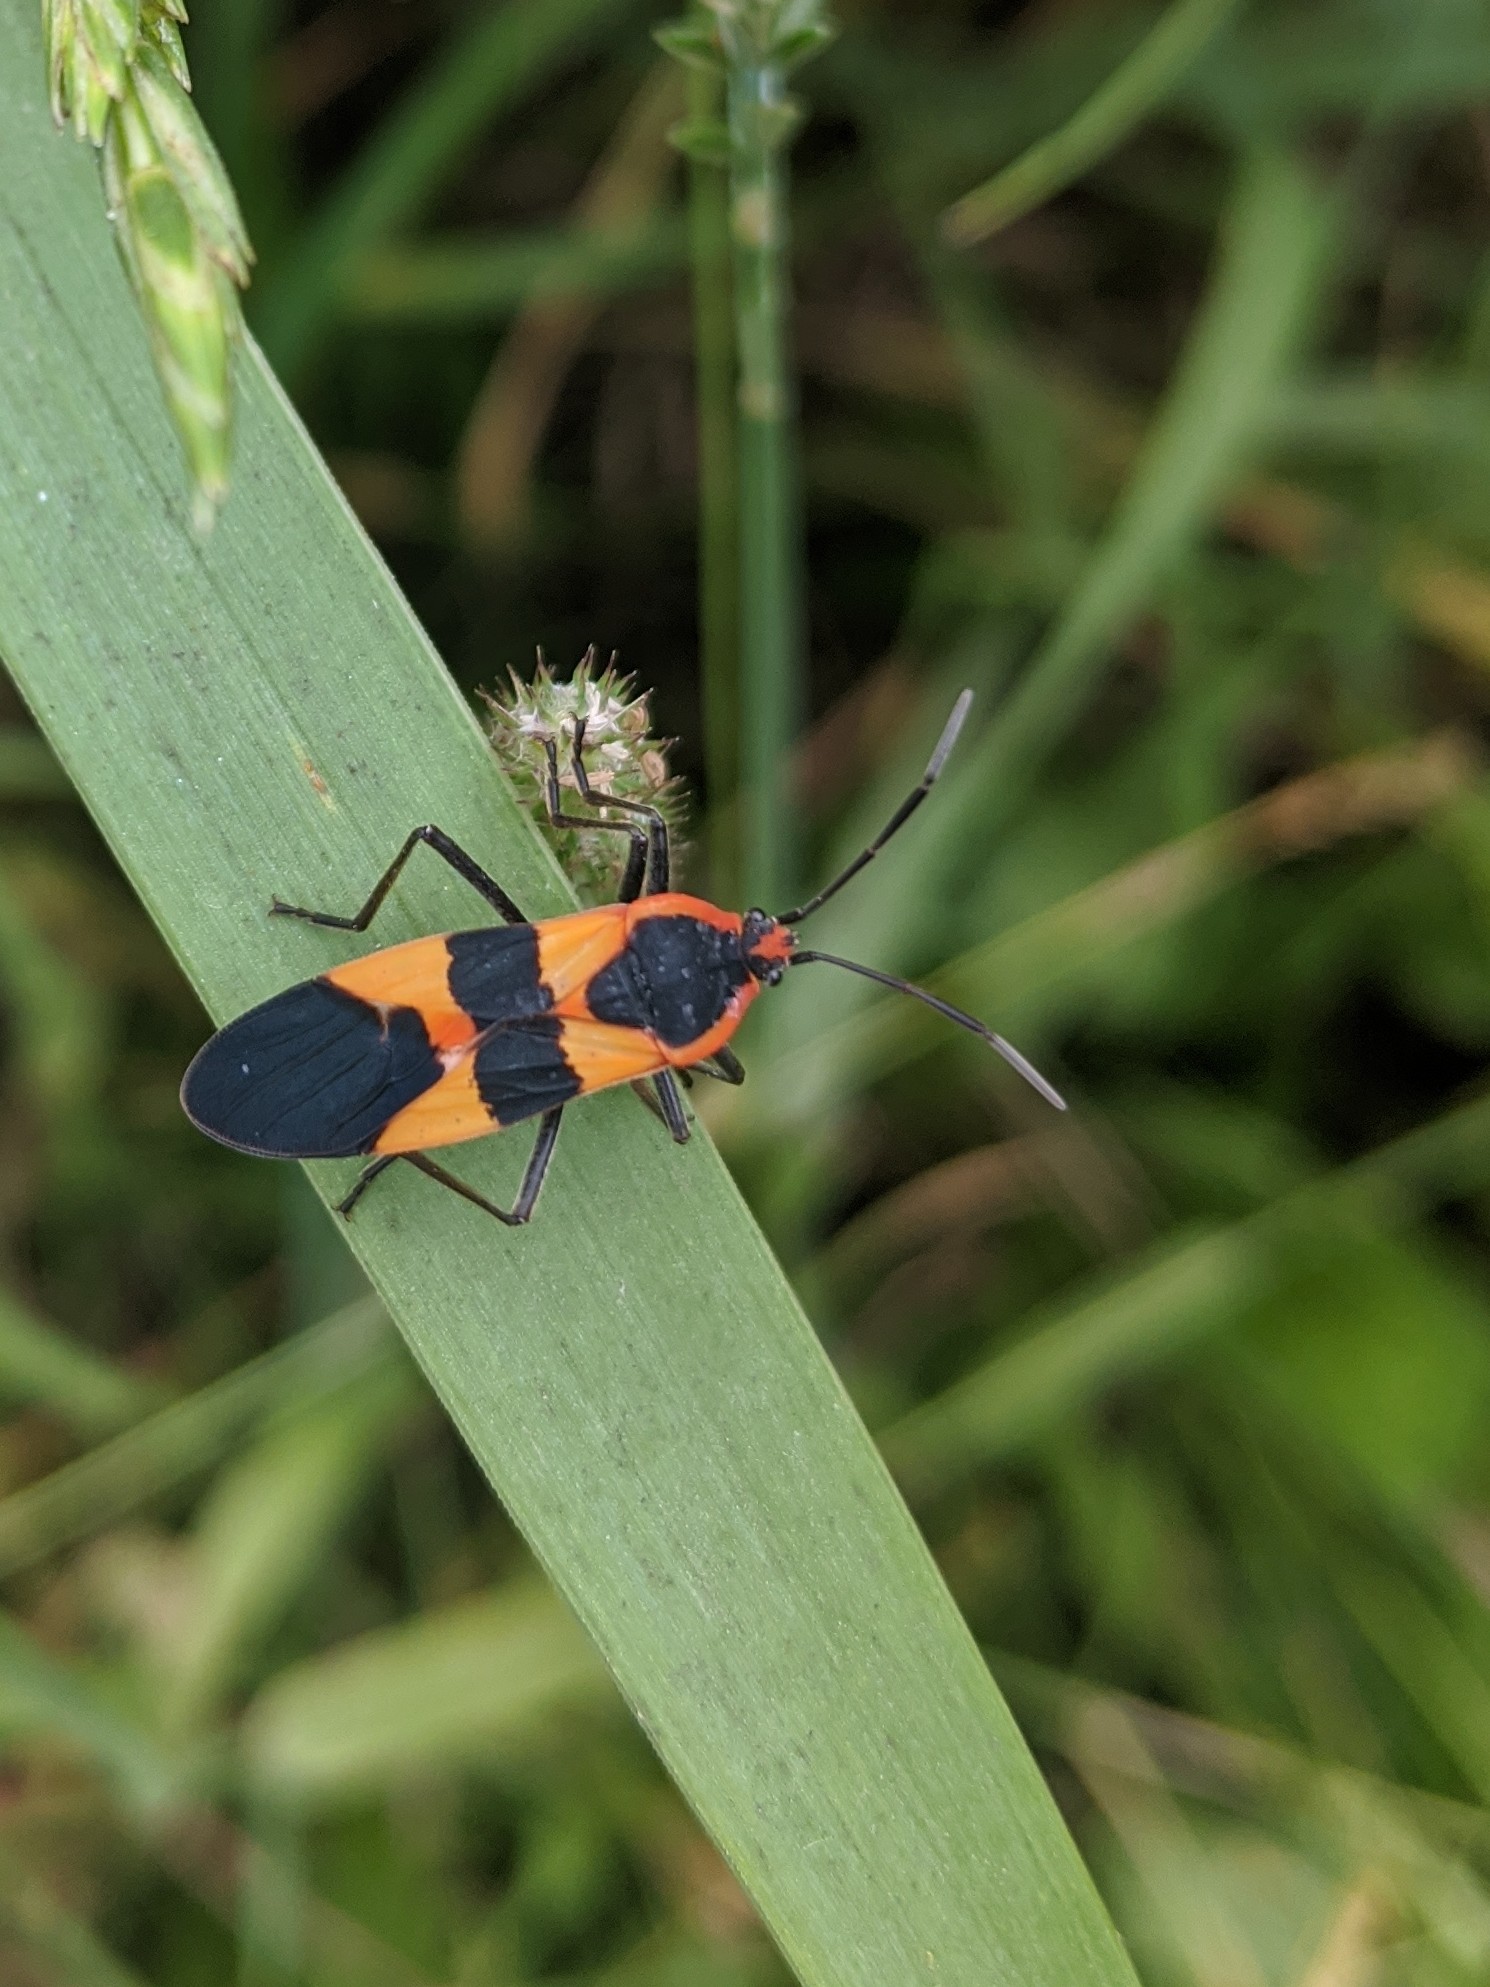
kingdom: Animalia
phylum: Arthropoda
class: Insecta
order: Hemiptera
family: Lygaeidae
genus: Oncopeltus
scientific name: Oncopeltus fasciatus
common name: Large milkweed bug
